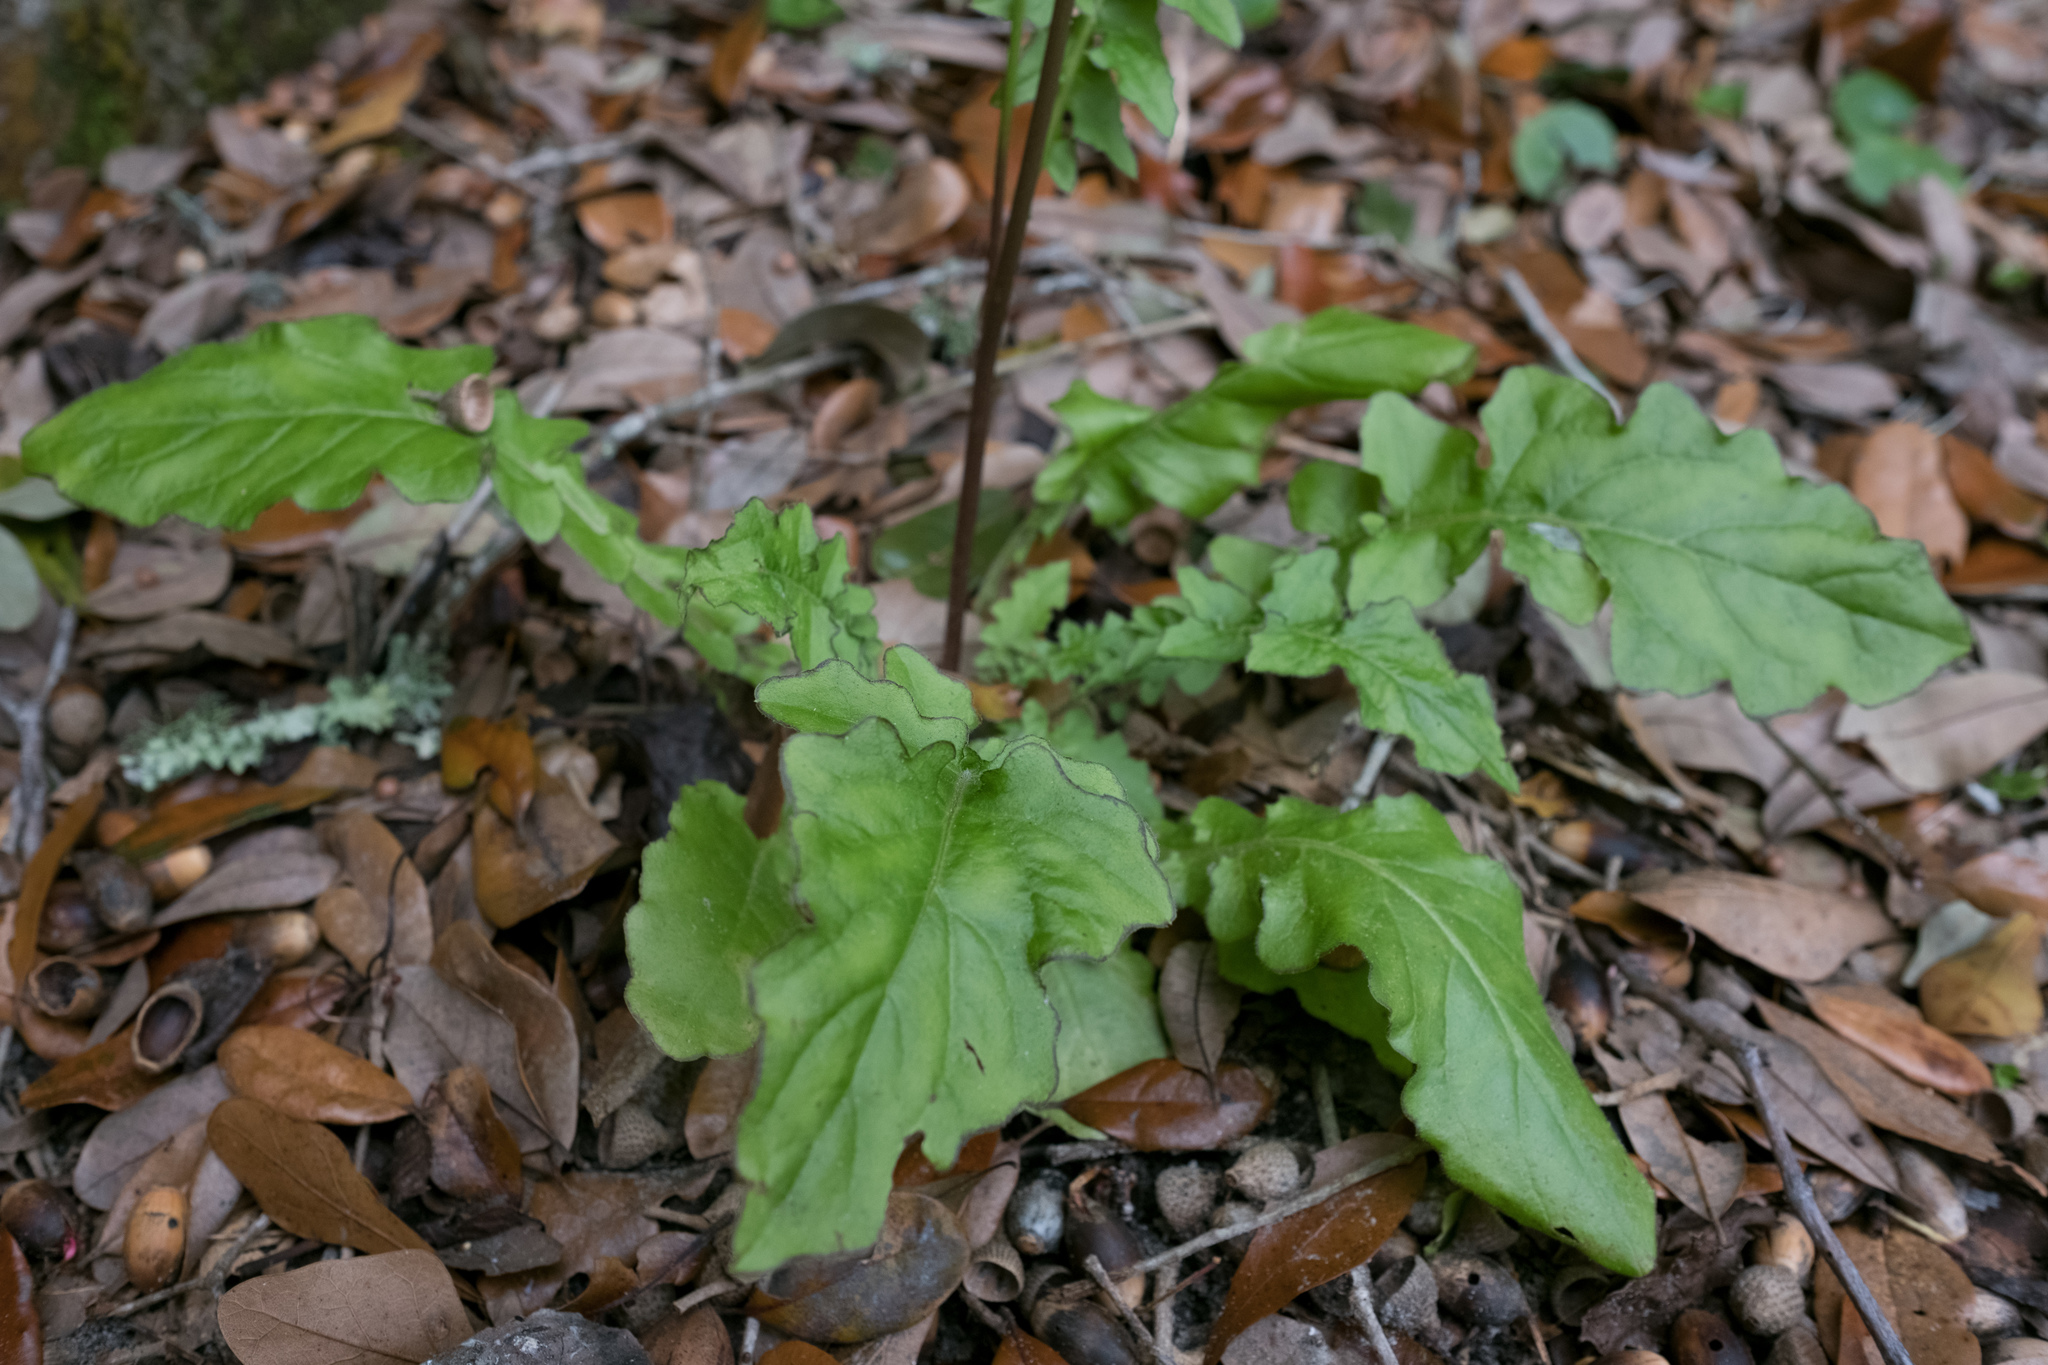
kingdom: Plantae
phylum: Tracheophyta
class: Magnoliopsida
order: Asterales
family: Asteraceae
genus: Youngia
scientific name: Youngia japonica
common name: Oriental false hawksbeard
